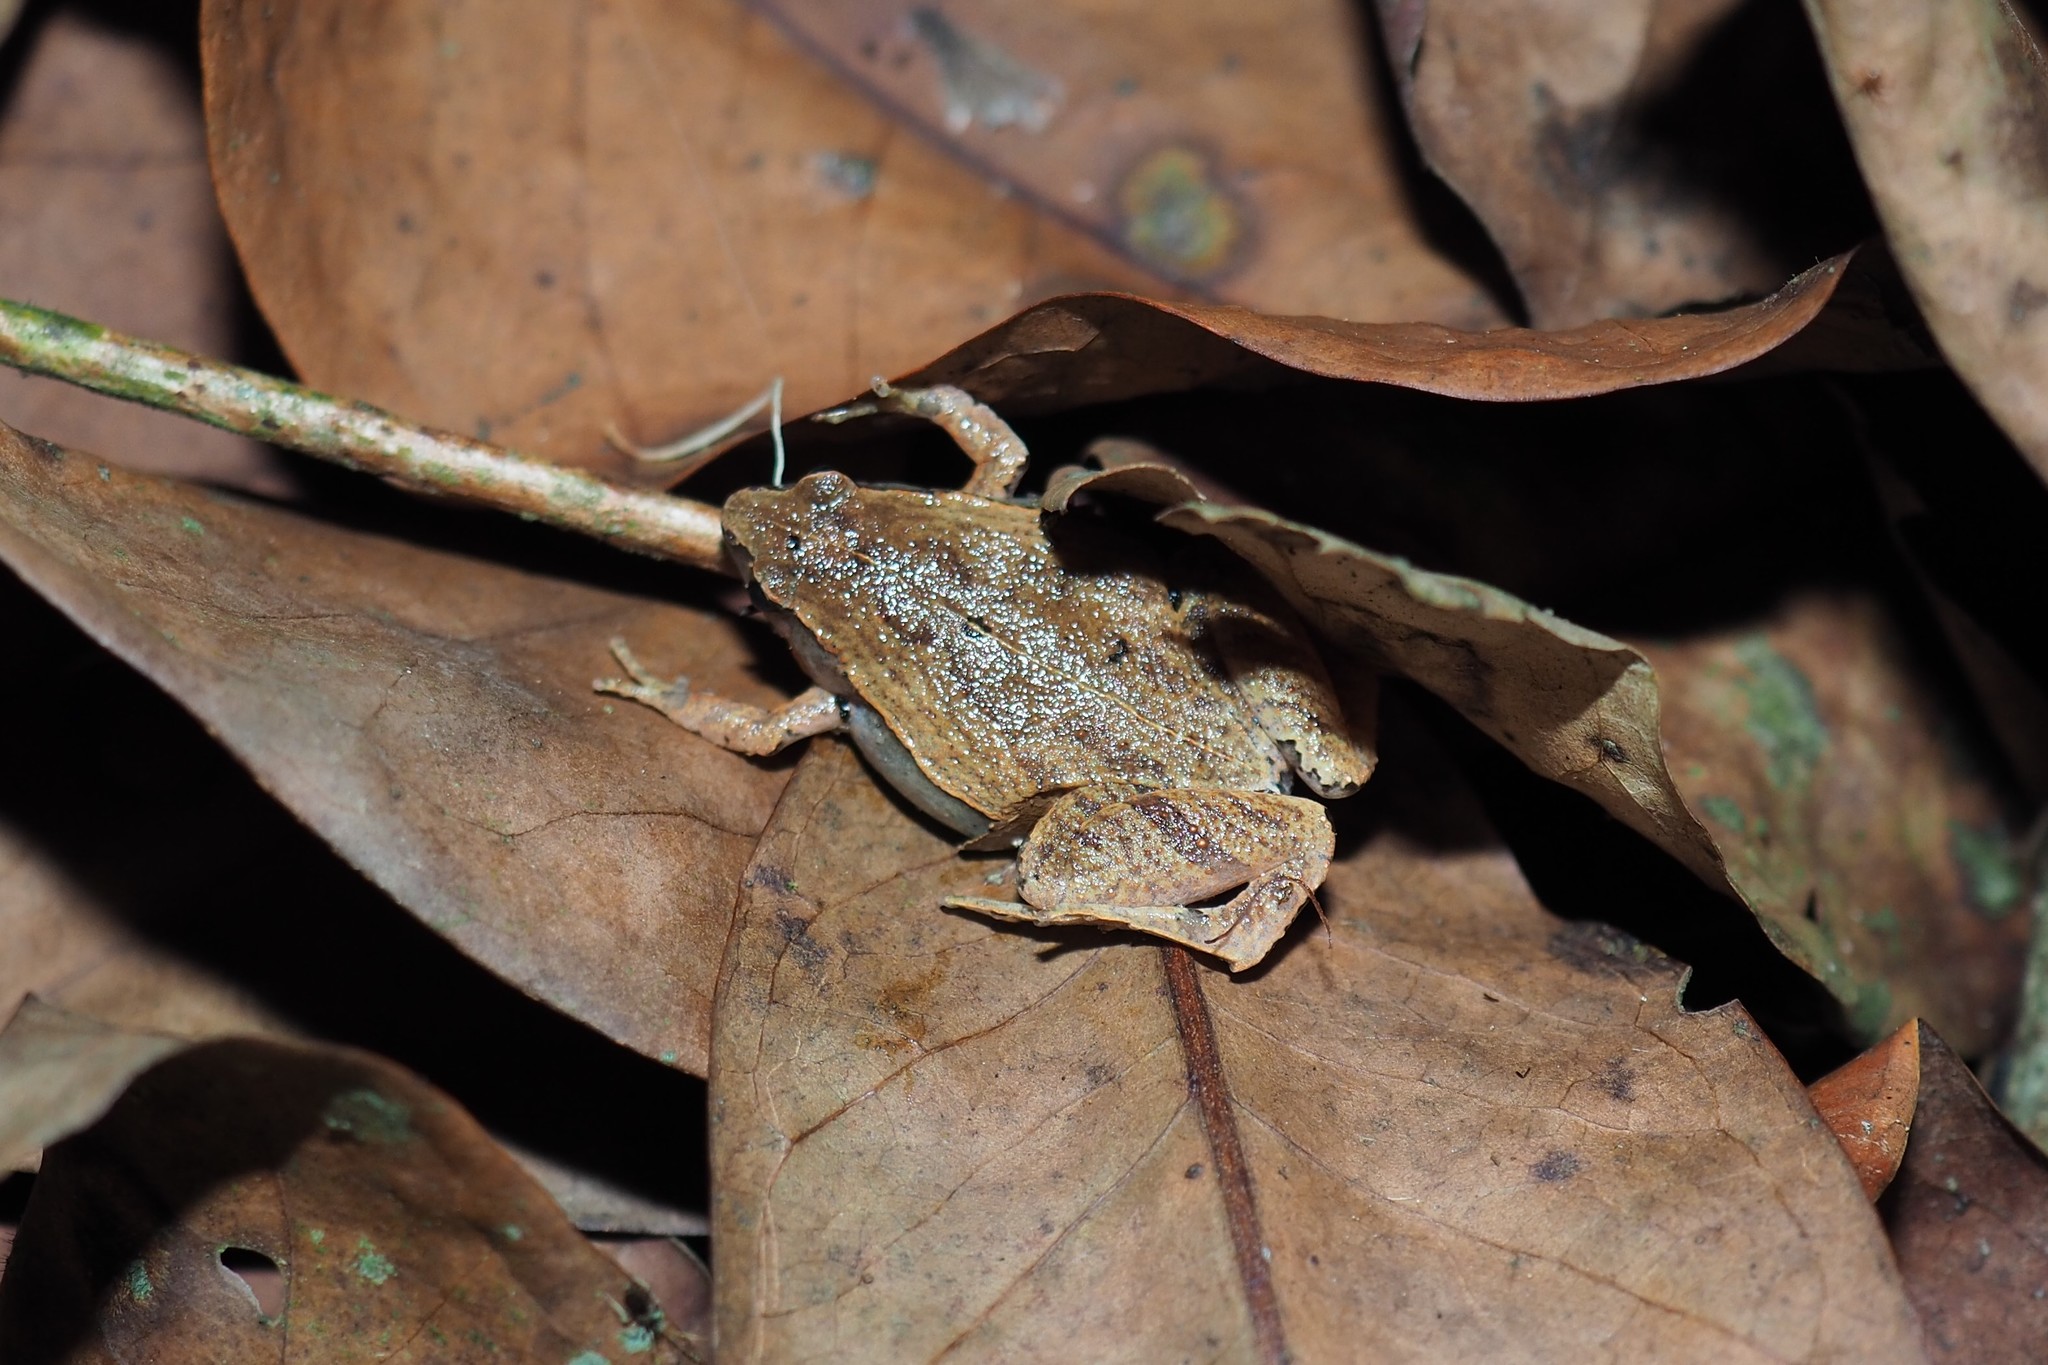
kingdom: Animalia
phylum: Chordata
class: Amphibia
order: Anura
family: Microhylidae
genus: Microhyla
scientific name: Microhyla fissipes
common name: Ornate narrow-mouthed frog
